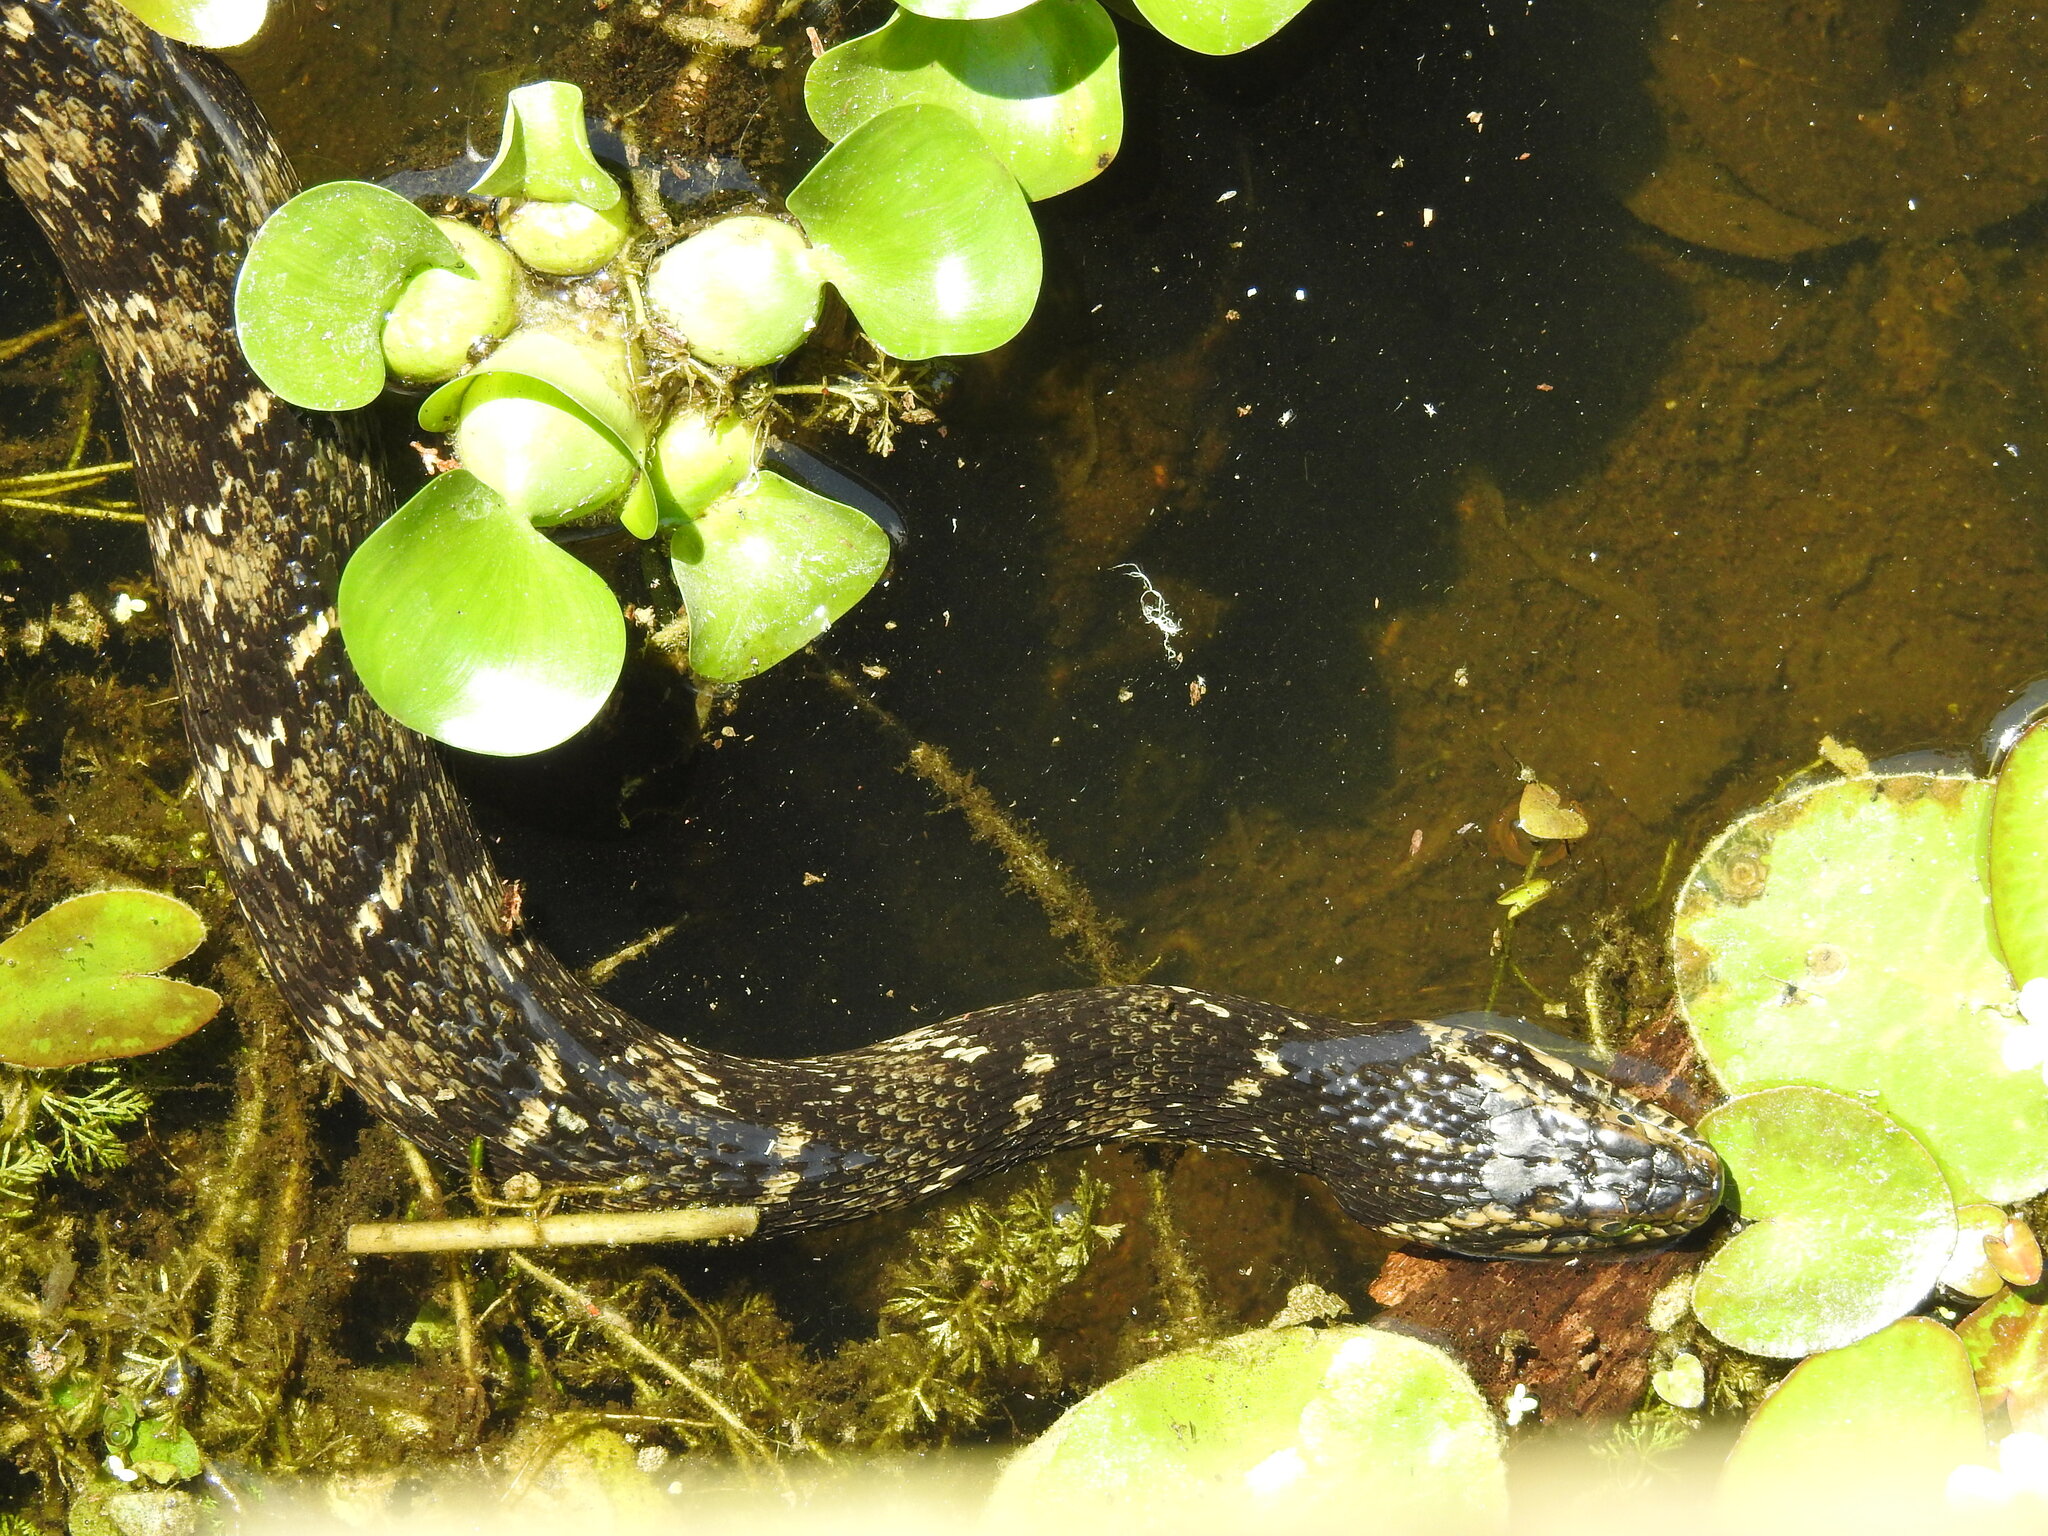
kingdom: Animalia
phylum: Chordata
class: Squamata
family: Colubridae
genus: Nerodia
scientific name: Nerodia fasciata
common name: Southern water snake
